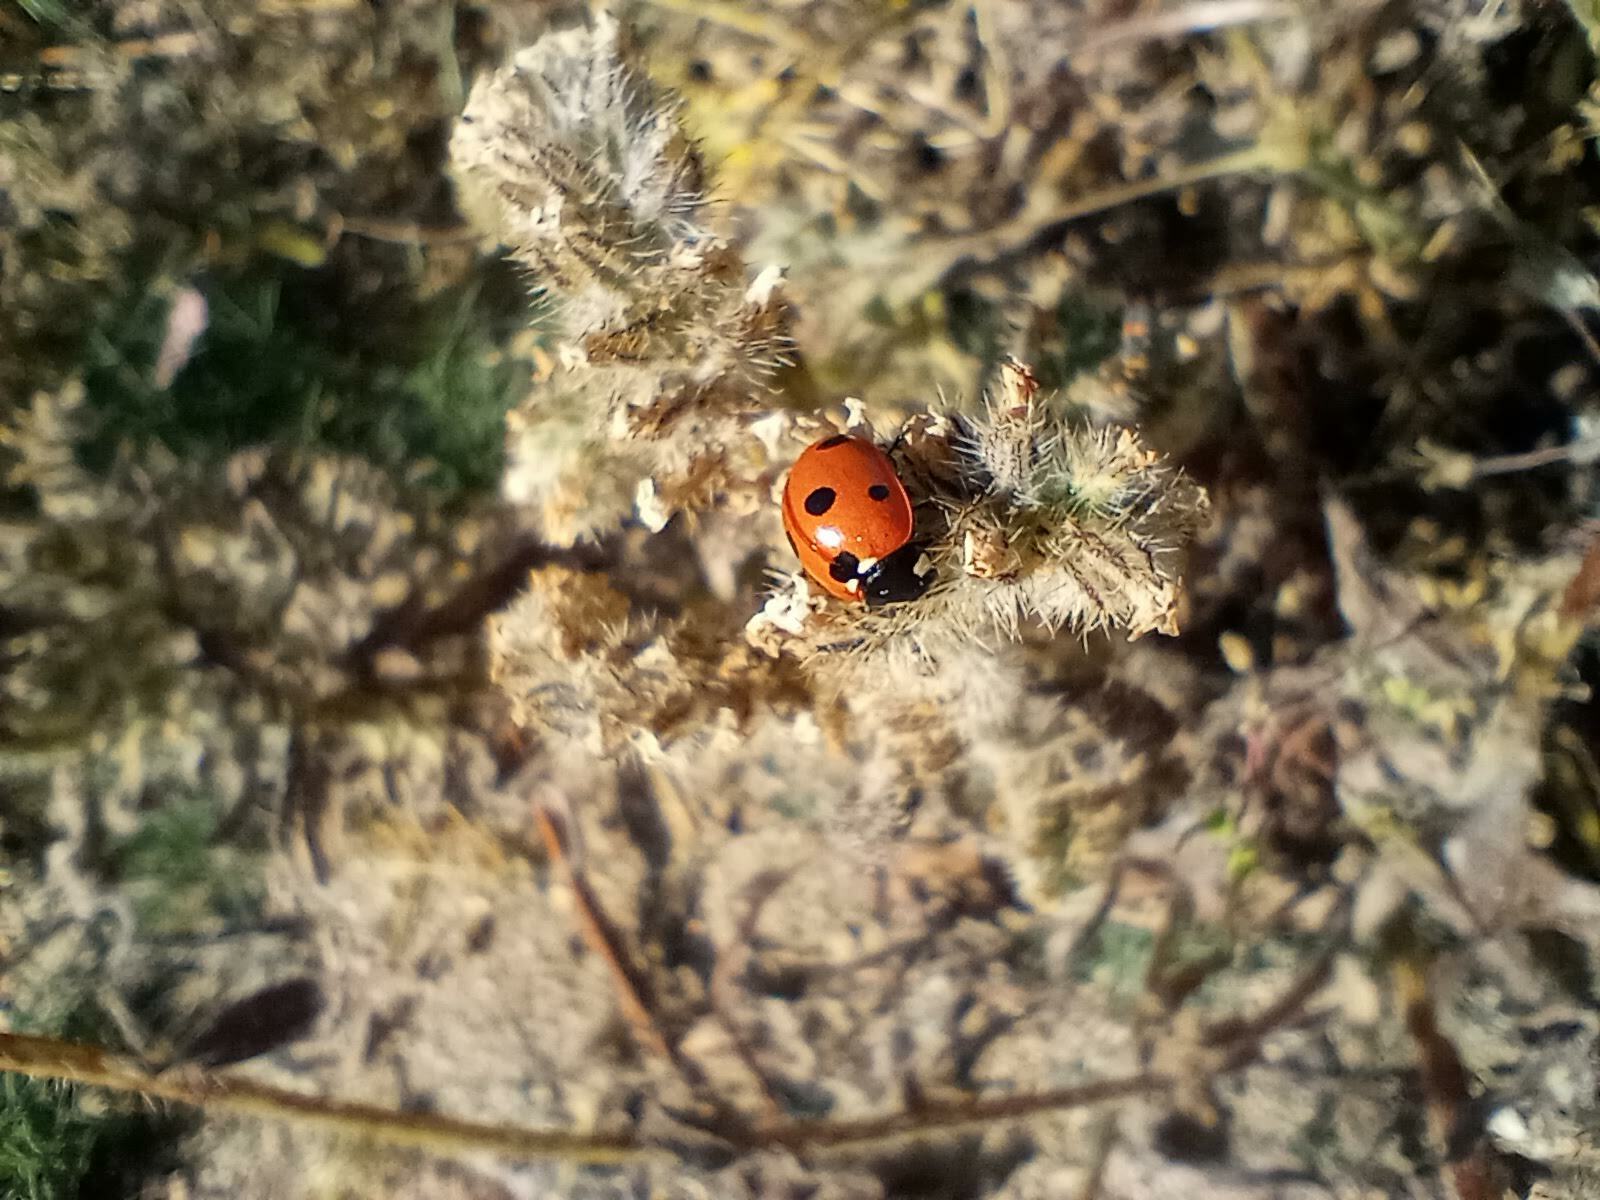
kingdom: Animalia
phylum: Arthropoda
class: Insecta
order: Coleoptera
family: Coccinellidae
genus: Coccinella
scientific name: Coccinella septempunctata
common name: Sevenspotted lady beetle
